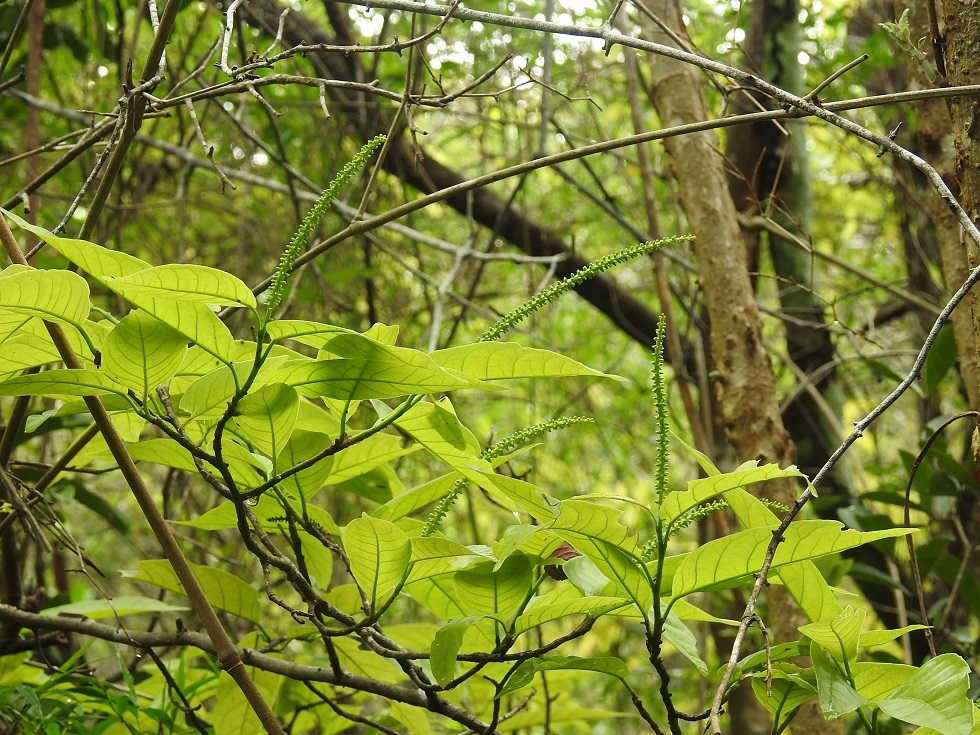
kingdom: Plantae
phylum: Tracheophyta
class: Magnoliopsida
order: Caryophyllales
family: Polygonaceae
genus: Coccoloba
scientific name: Coccoloba cozumelensis
